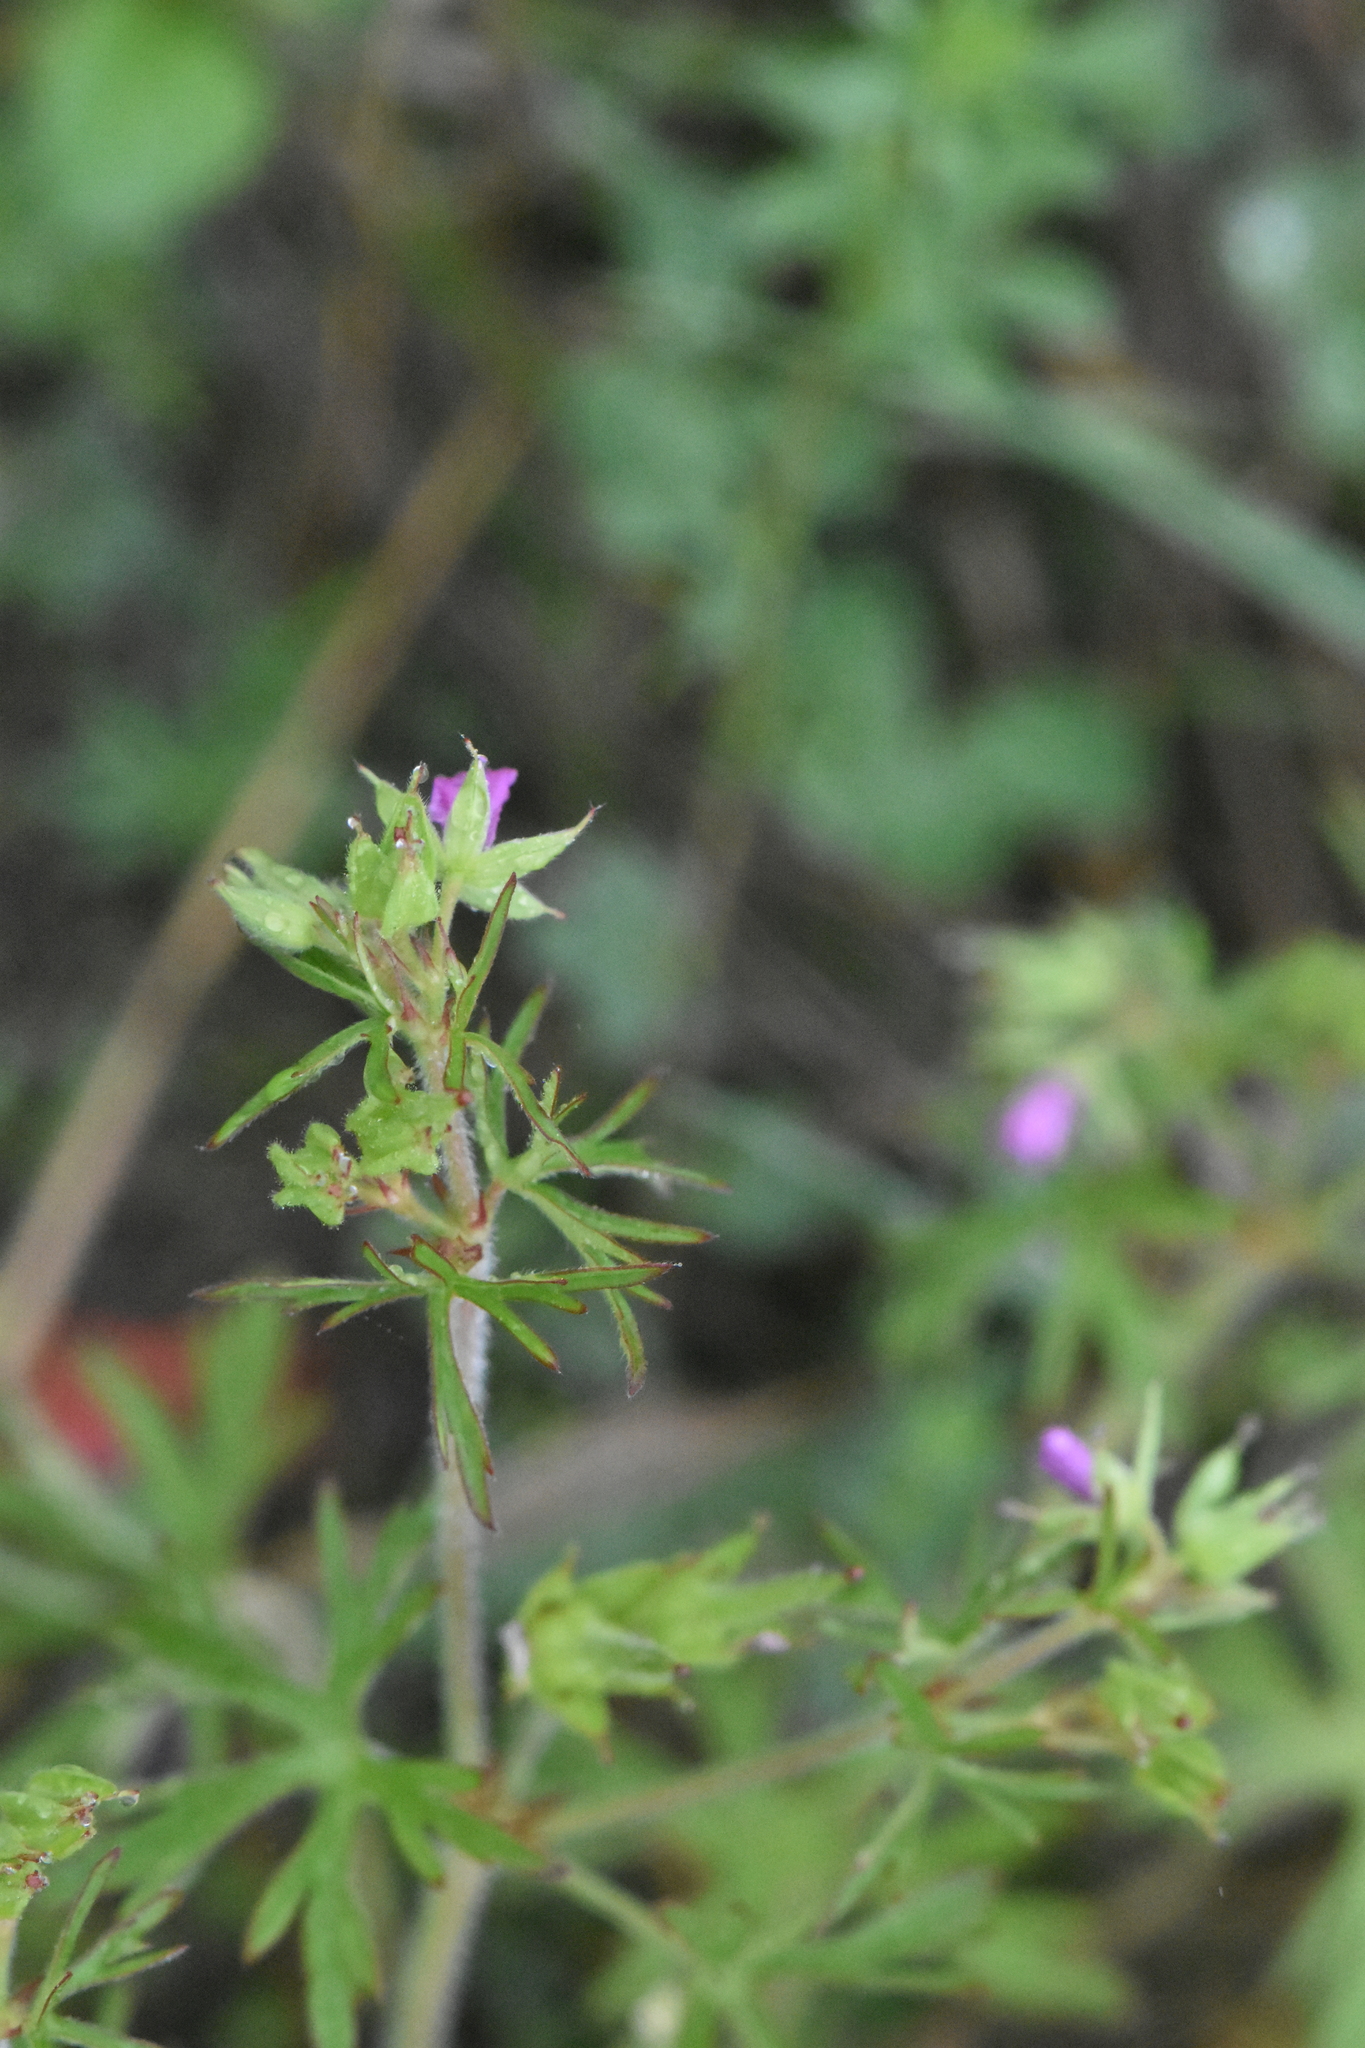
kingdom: Plantae
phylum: Tracheophyta
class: Magnoliopsida
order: Geraniales
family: Geraniaceae
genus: Geranium
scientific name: Geranium dissectum
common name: Cut-leaved crane's-bill
